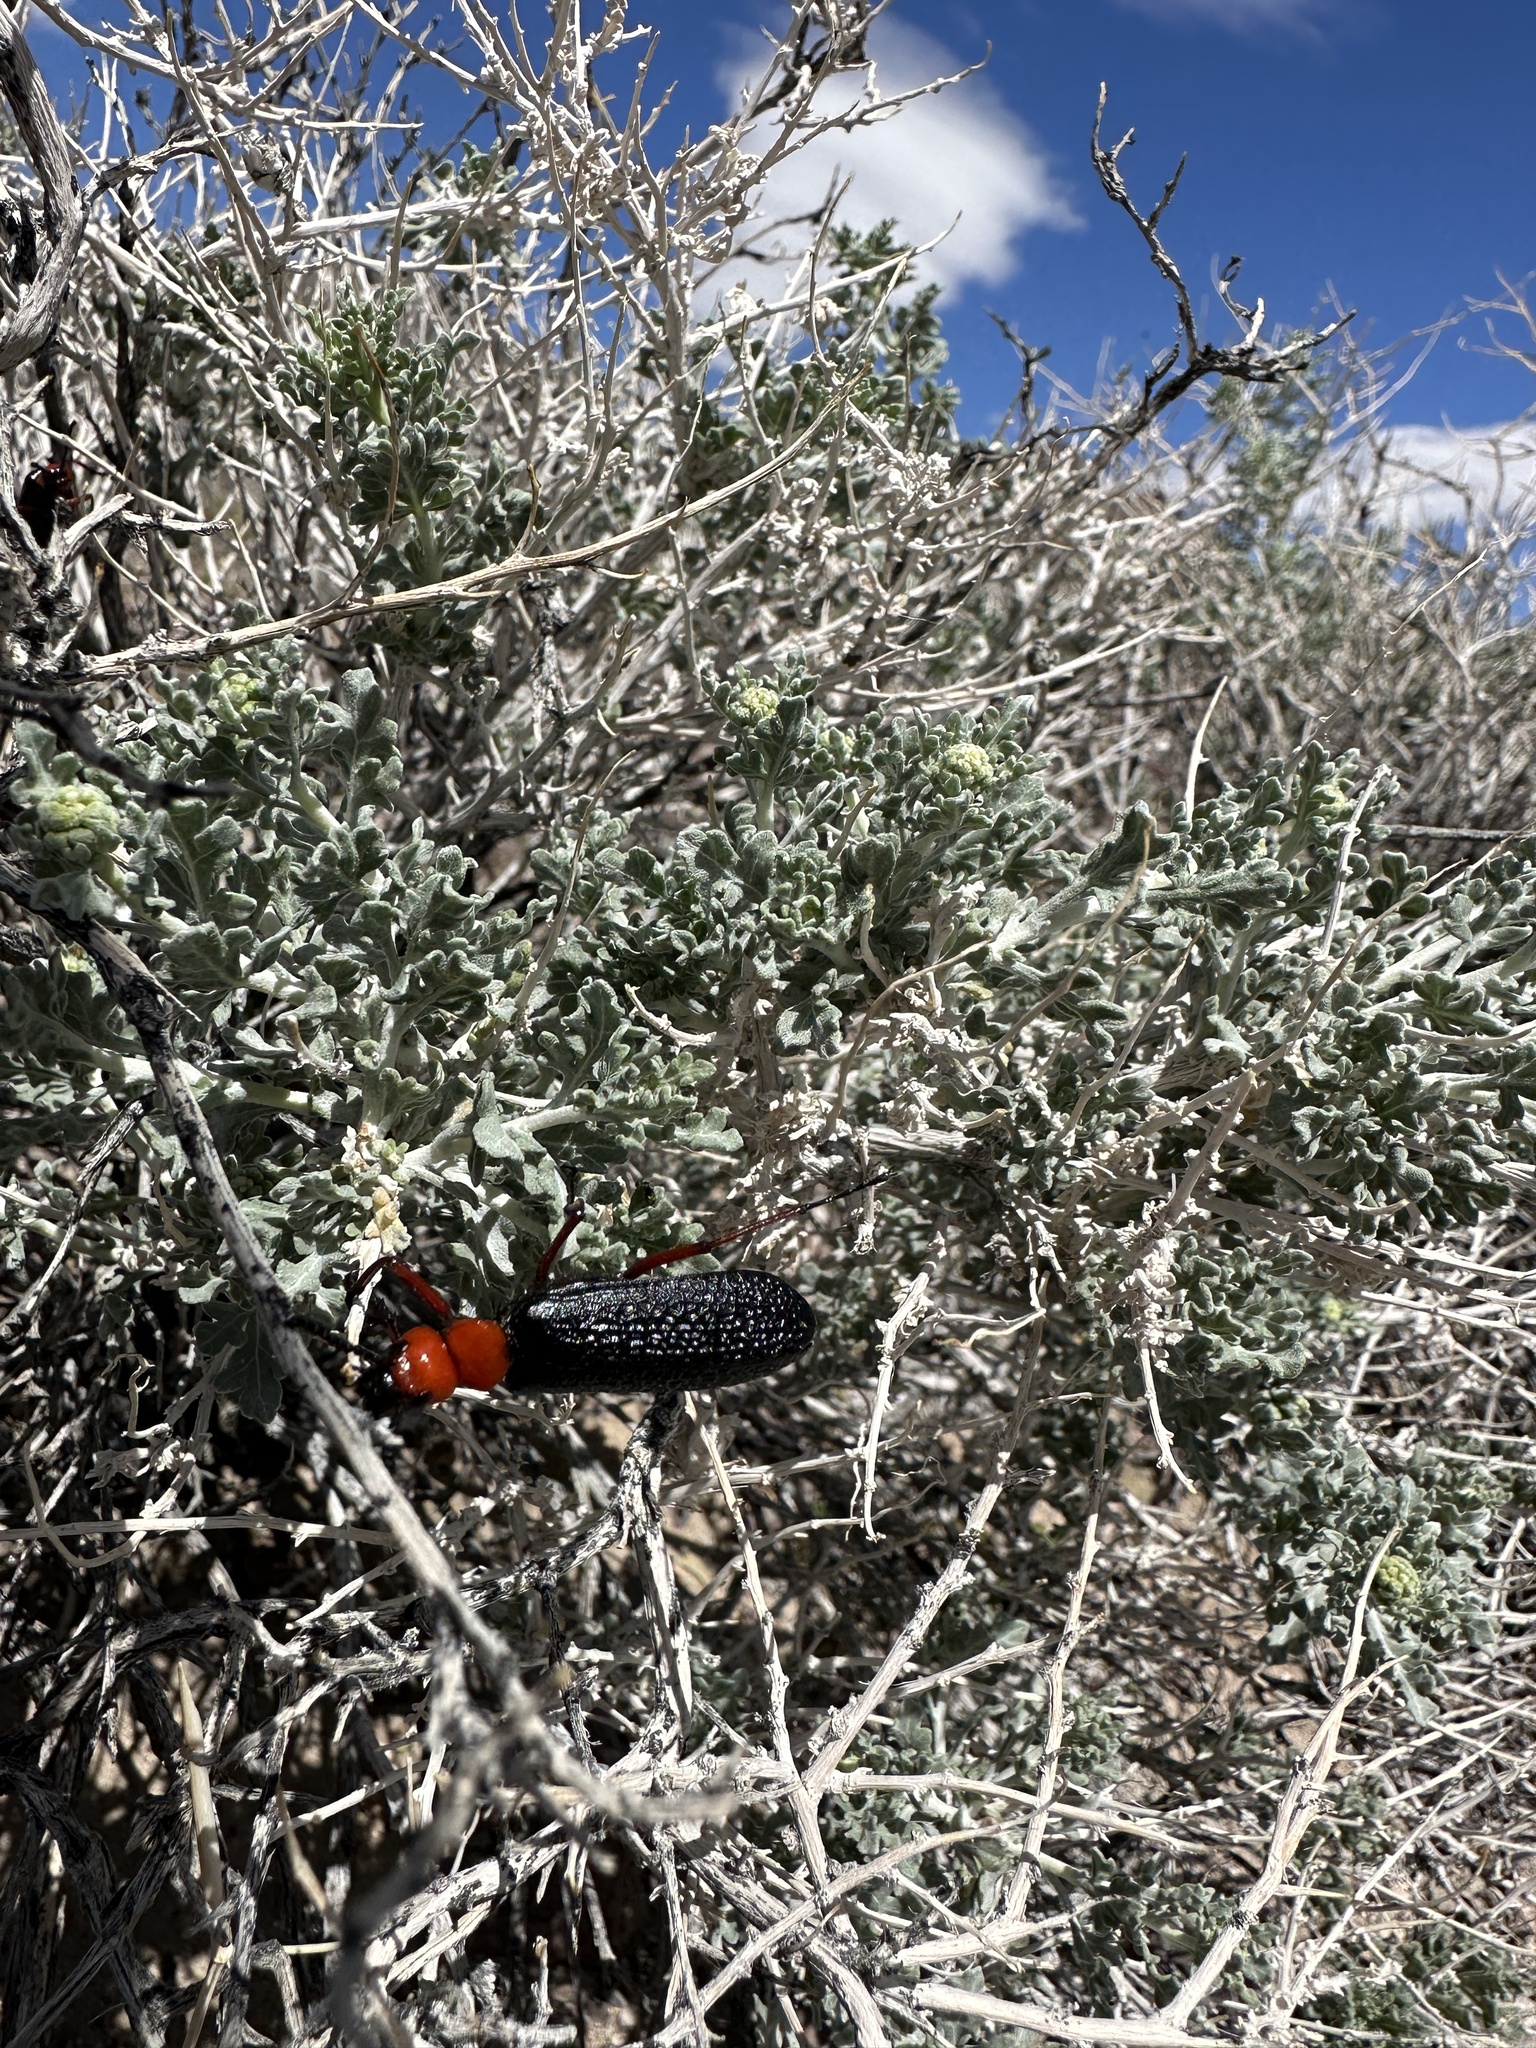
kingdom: Animalia
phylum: Arthropoda
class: Insecta
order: Coleoptera
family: Meloidae
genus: Lytta
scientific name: Lytta magister
